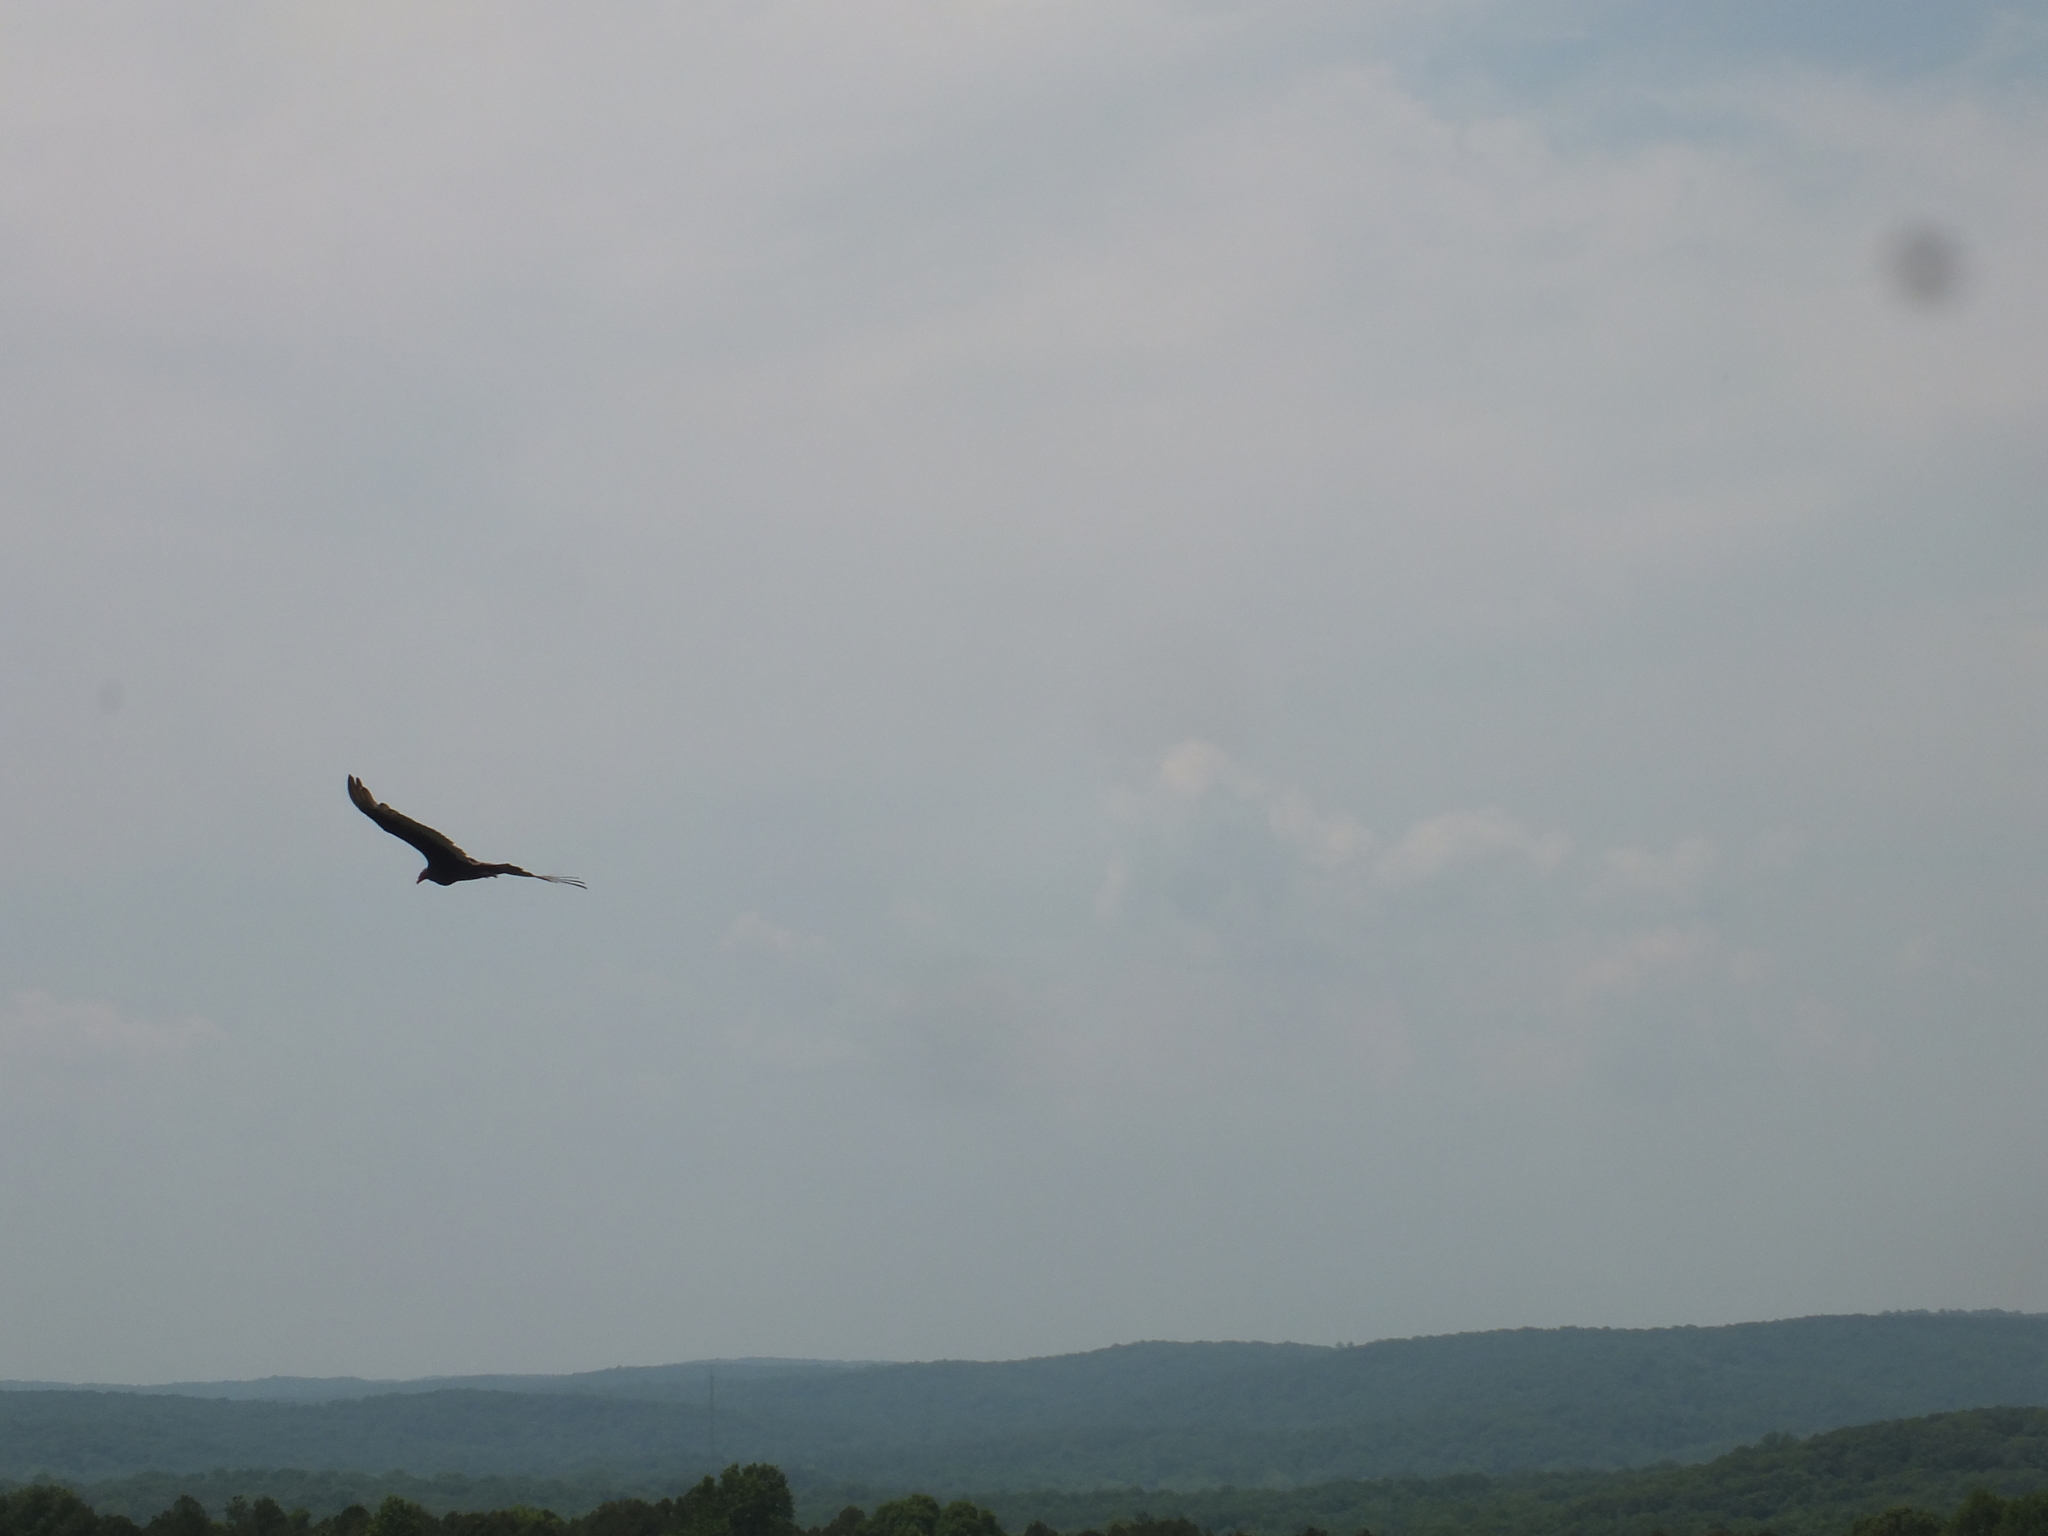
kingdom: Animalia
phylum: Chordata
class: Aves
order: Accipitriformes
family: Cathartidae
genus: Cathartes
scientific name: Cathartes aura
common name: Turkey vulture
